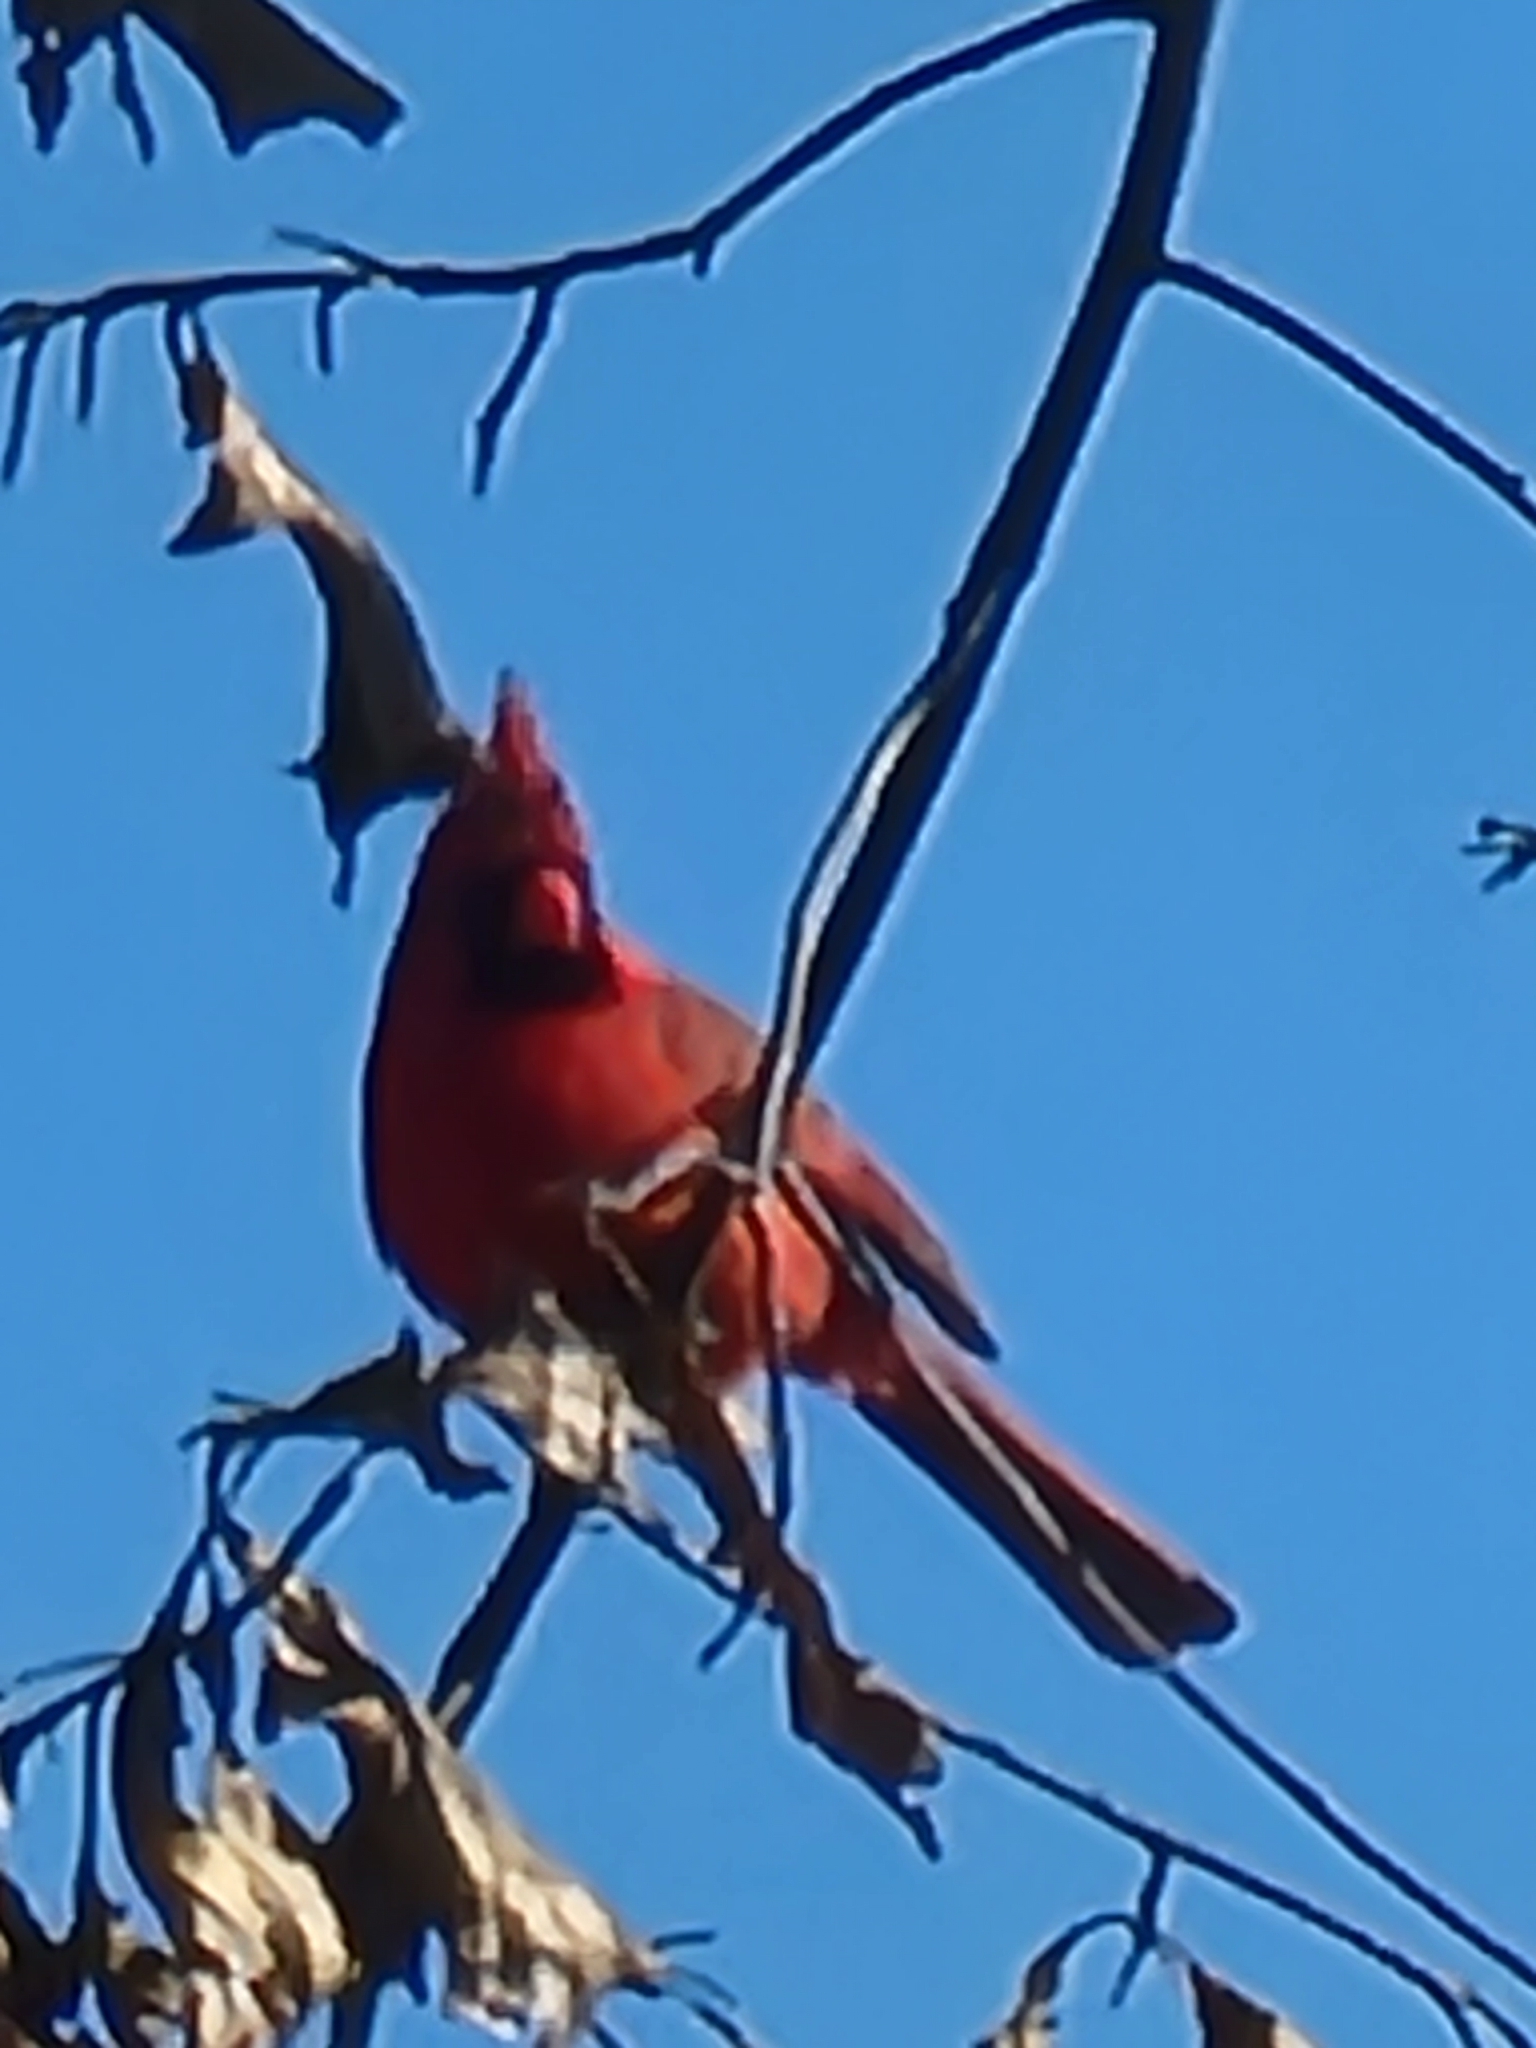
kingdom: Animalia
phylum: Chordata
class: Aves
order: Passeriformes
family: Cardinalidae
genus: Cardinalis
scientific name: Cardinalis cardinalis
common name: Northern cardinal
